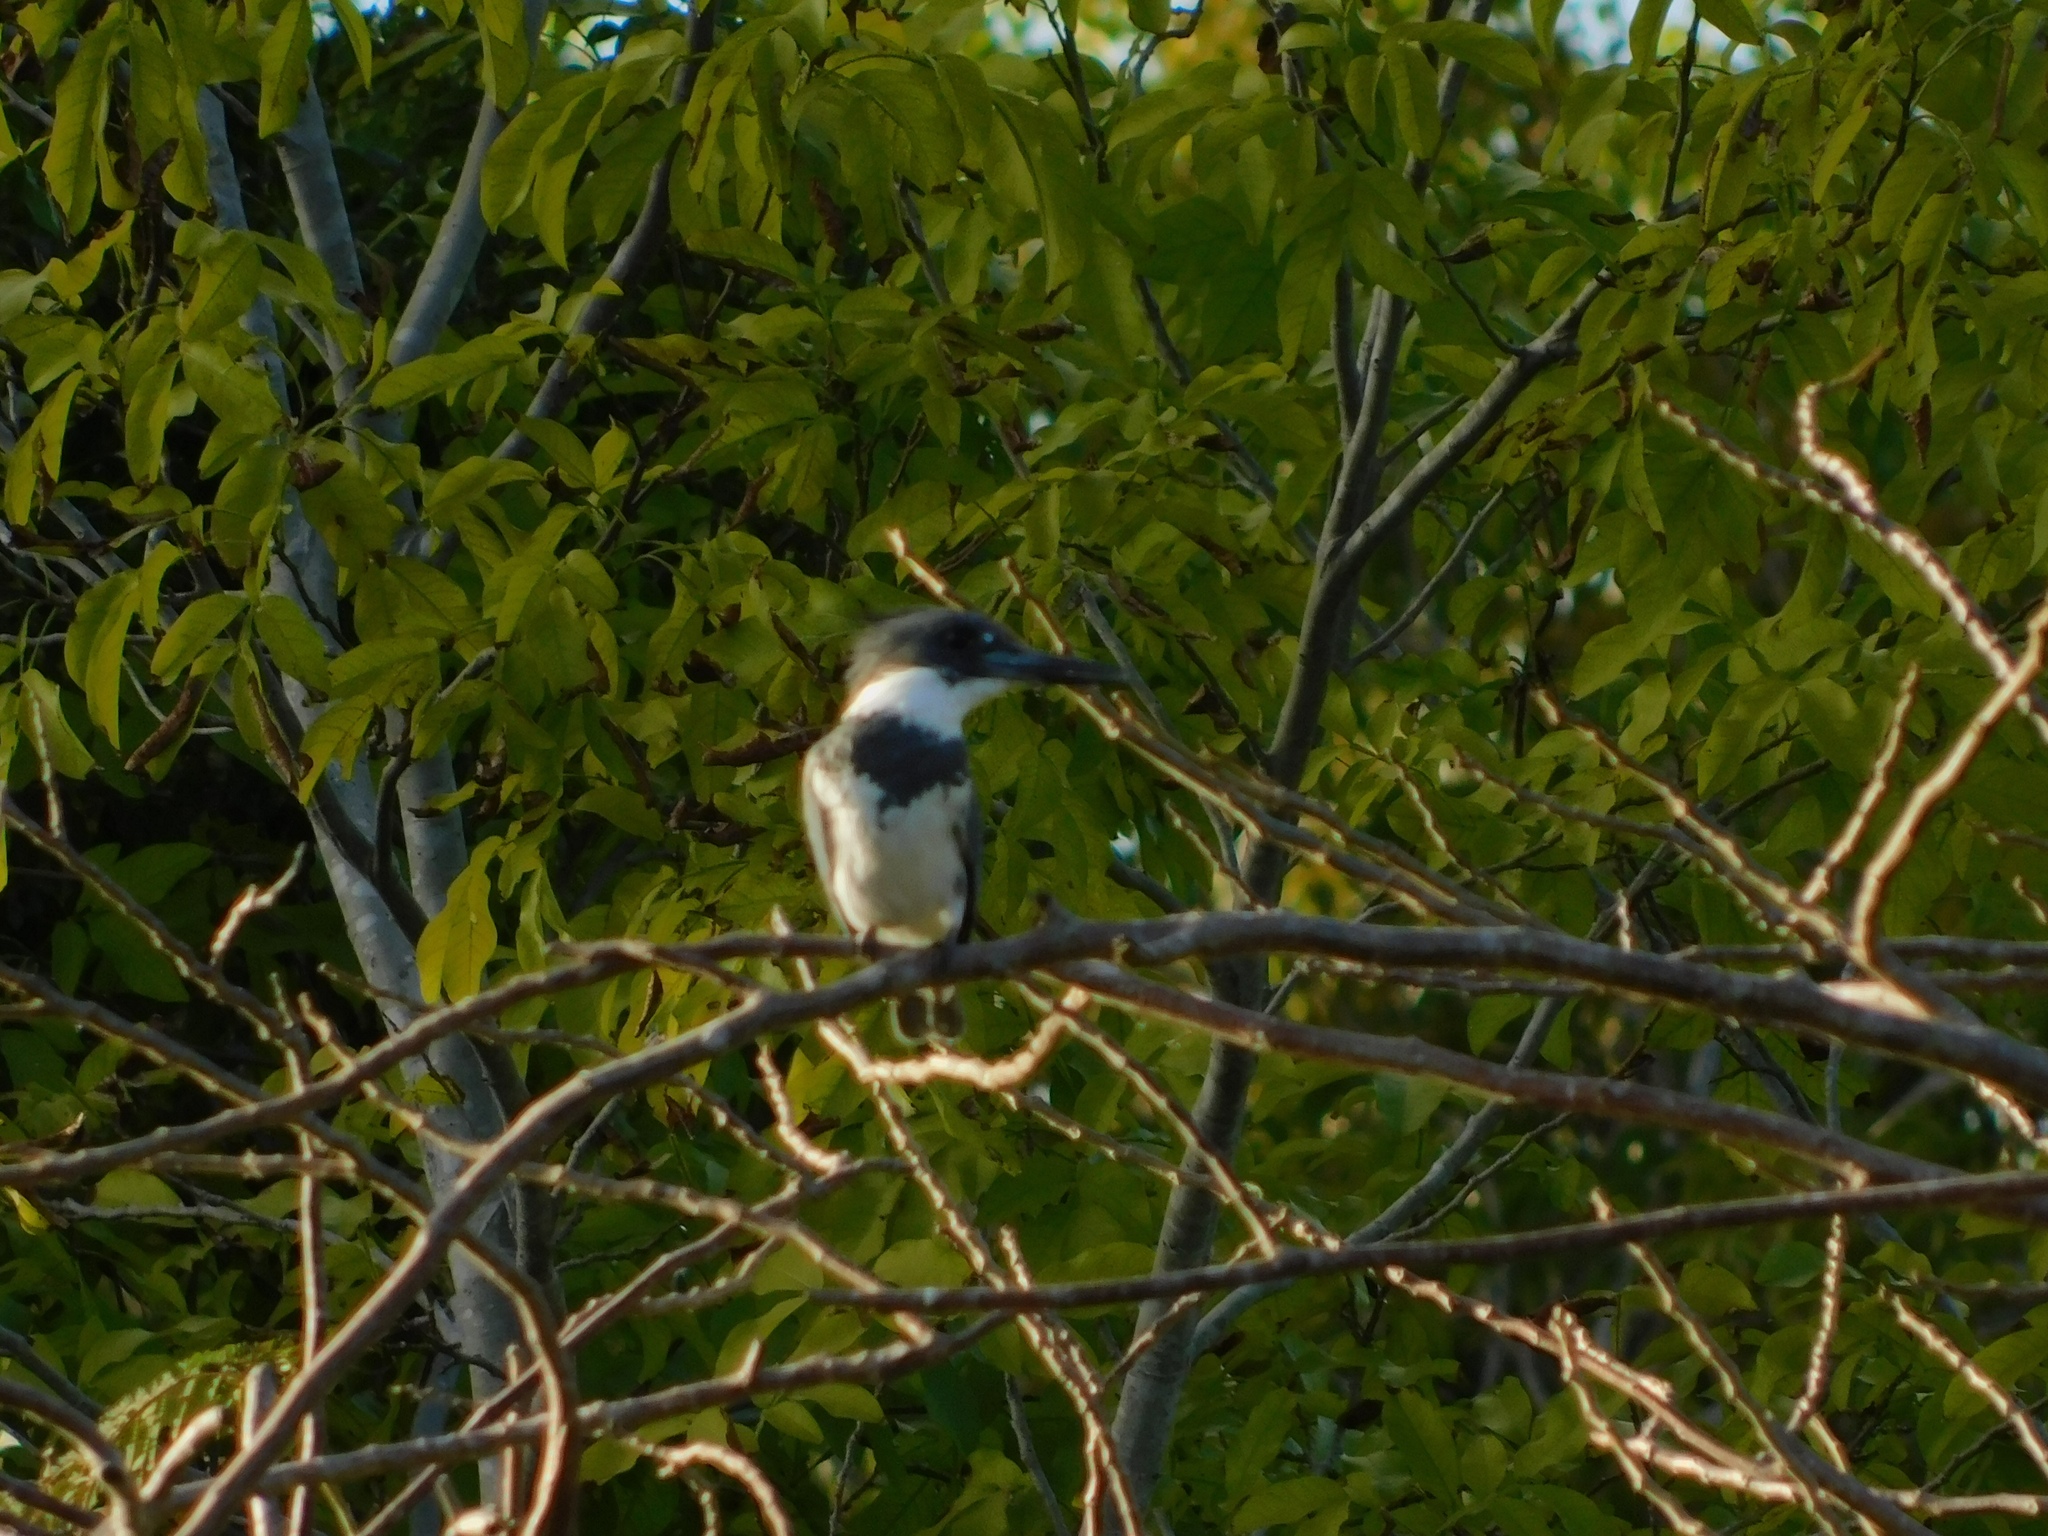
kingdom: Animalia
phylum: Chordata
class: Aves
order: Coraciiformes
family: Alcedinidae
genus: Megaceryle
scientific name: Megaceryle alcyon
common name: Belted kingfisher
